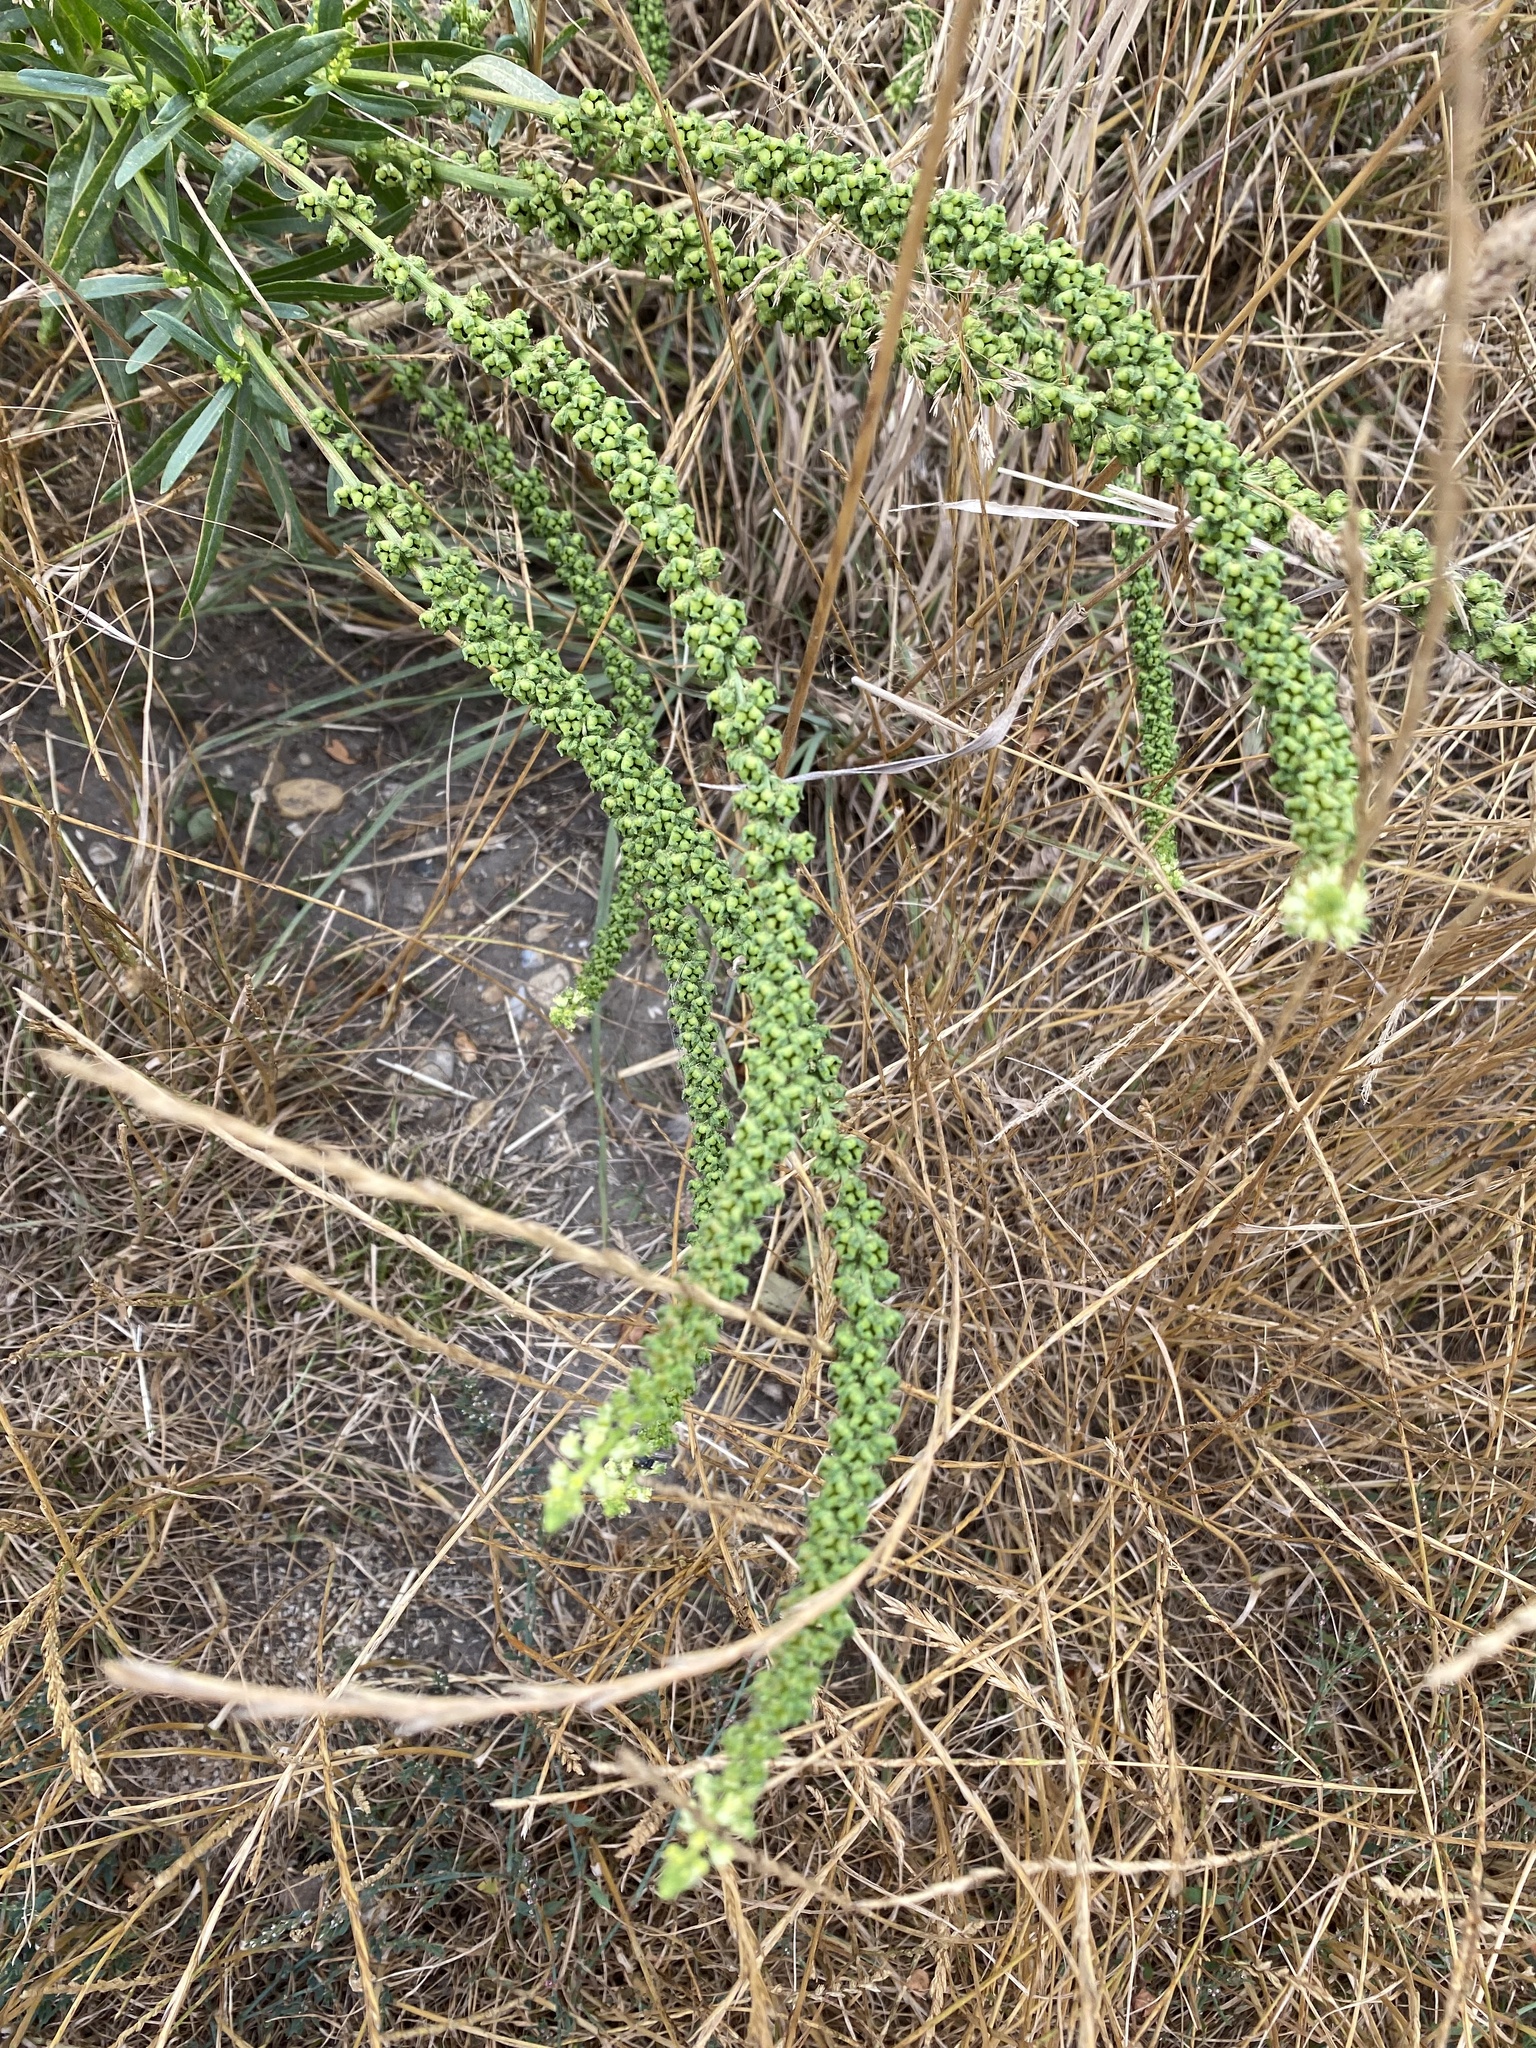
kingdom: Plantae
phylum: Tracheophyta
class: Magnoliopsida
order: Brassicales
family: Resedaceae
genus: Reseda
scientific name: Reseda luteola
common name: Weld
